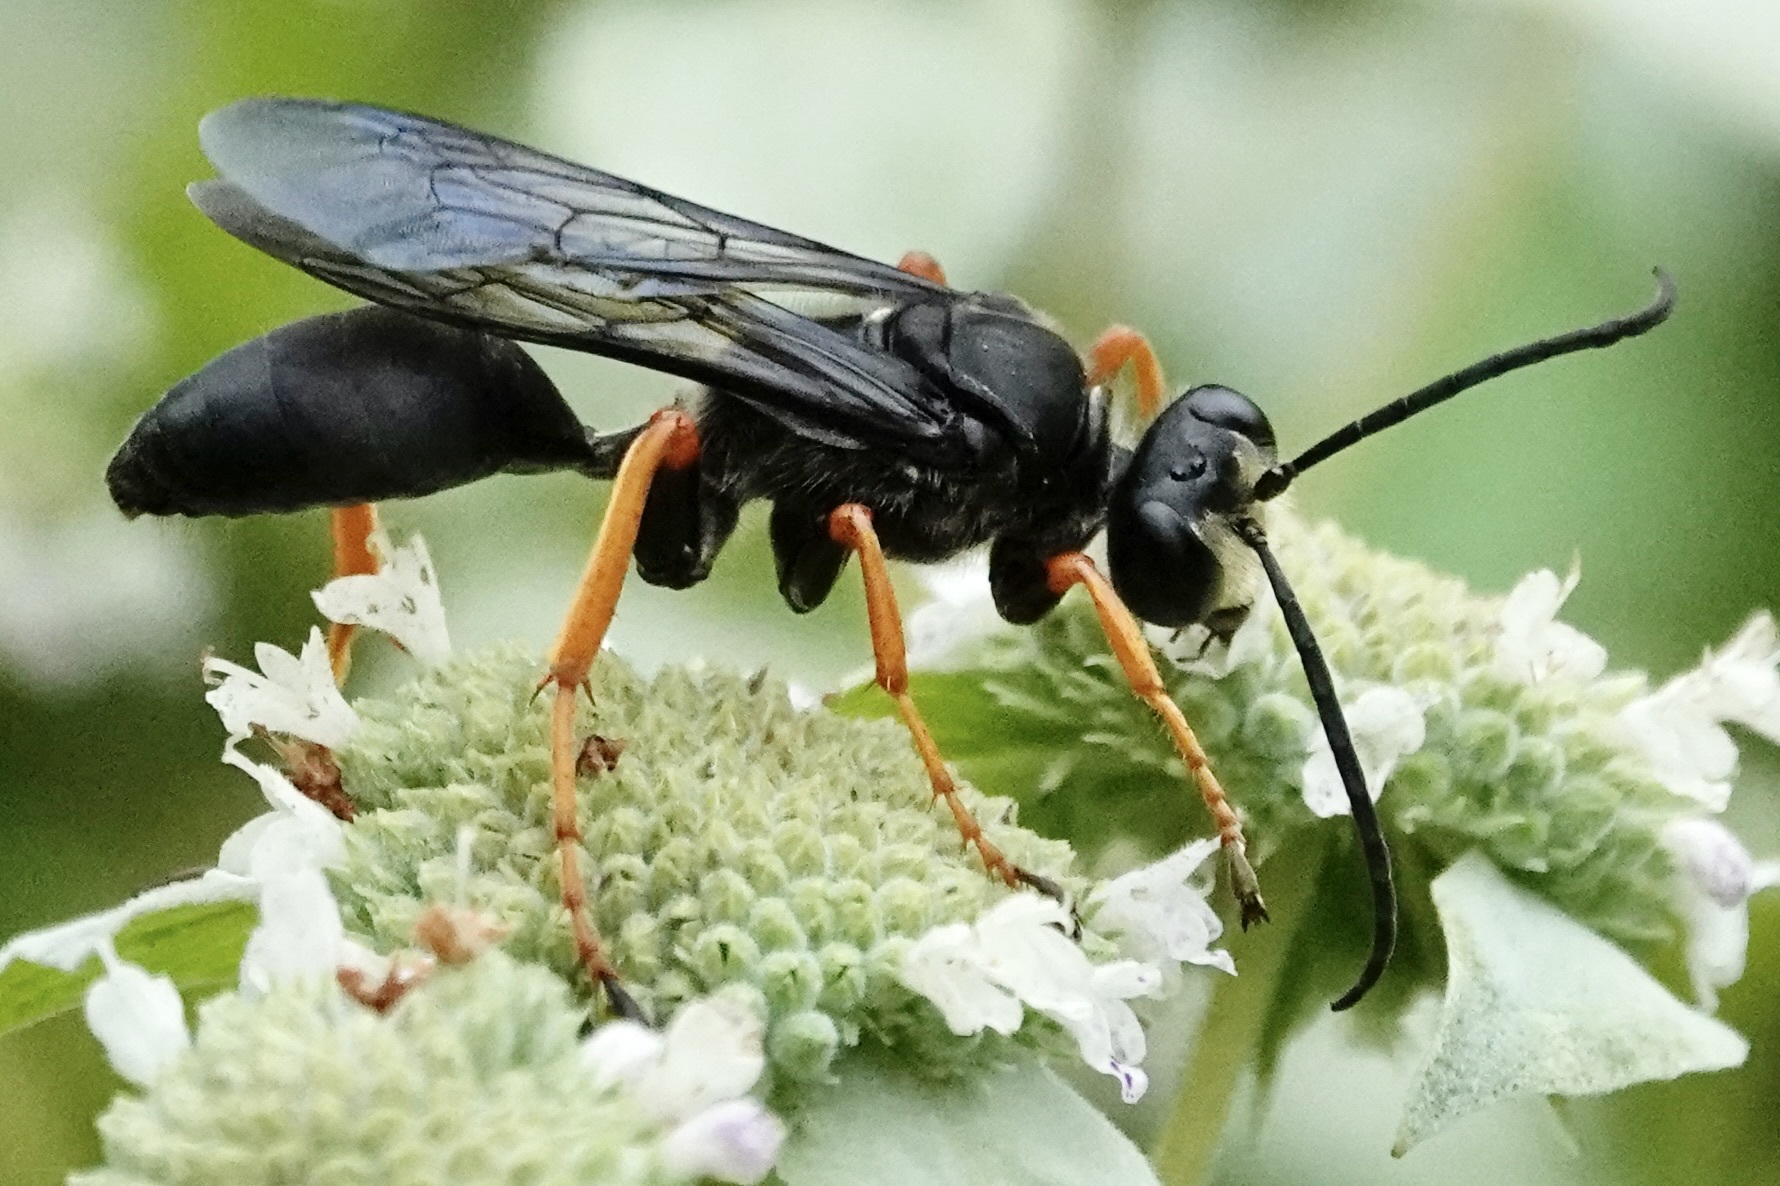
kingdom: Animalia
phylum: Arthropoda
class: Insecta
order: Hymenoptera
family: Sphecidae
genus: Sphex
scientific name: Sphex nudus
